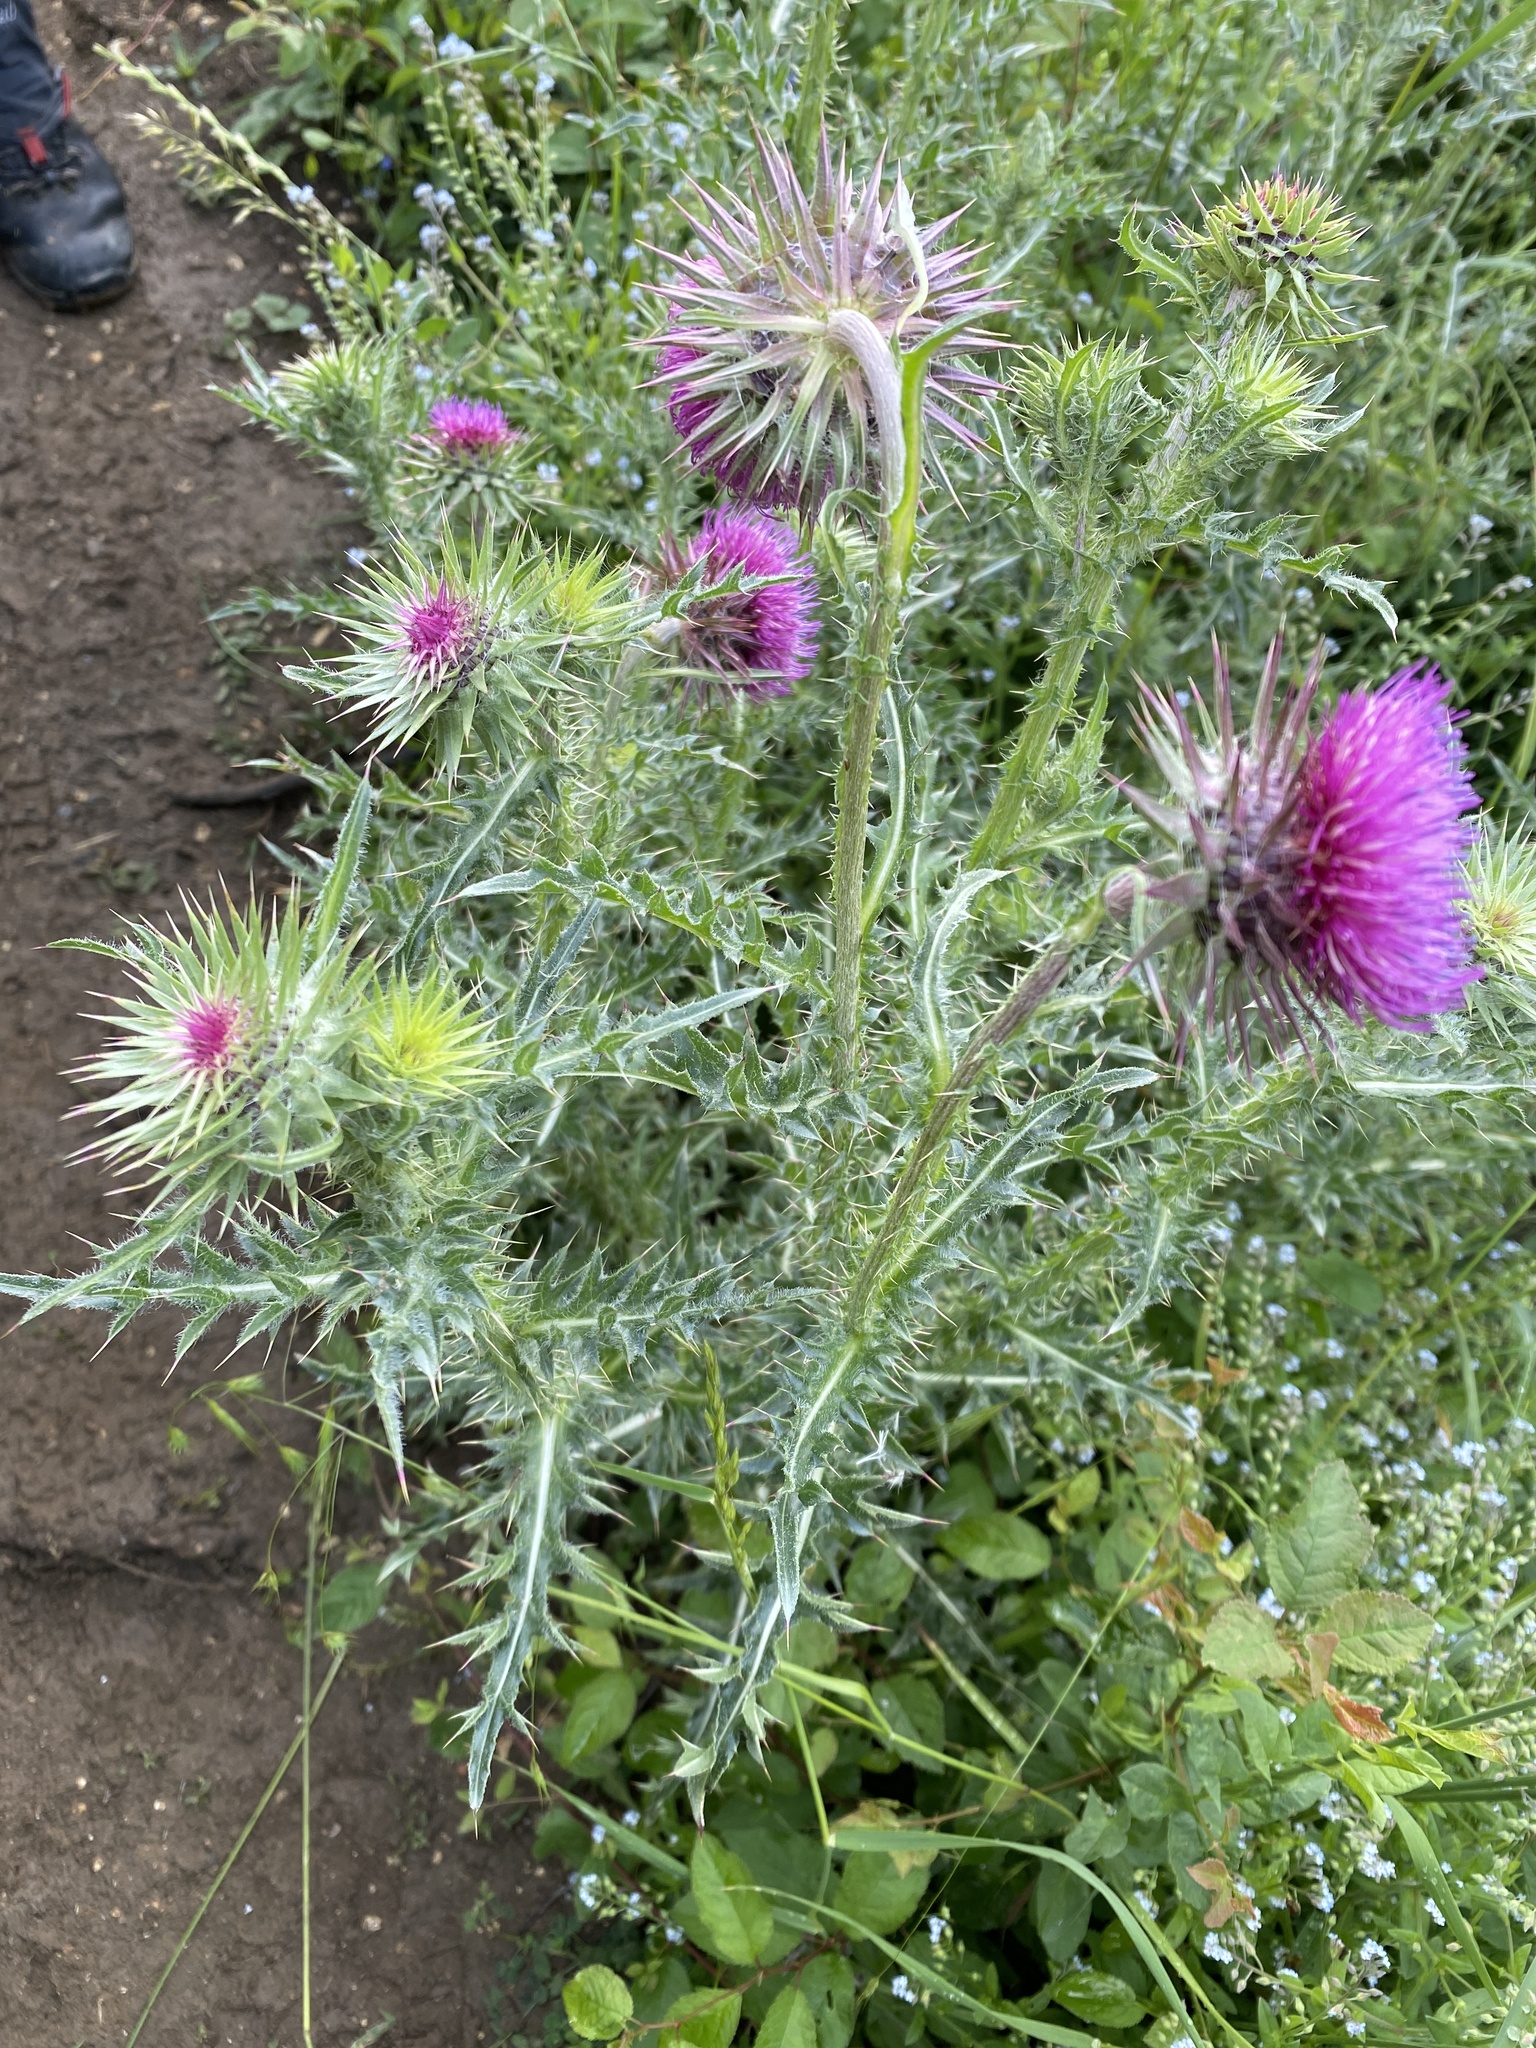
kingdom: Plantae
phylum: Tracheophyta
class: Magnoliopsida
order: Asterales
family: Asteraceae
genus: Carduus
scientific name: Carduus nutans
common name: Musk thistle
